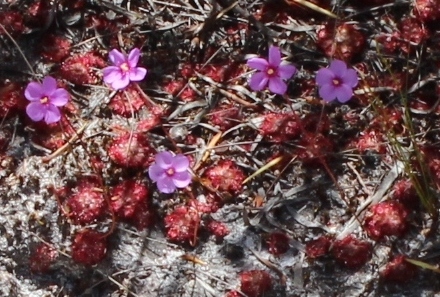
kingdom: Plantae
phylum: Tracheophyta
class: Magnoliopsida
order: Caryophyllales
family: Droseraceae
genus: Drosera
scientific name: Drosera aliciae
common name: Alice sundew
